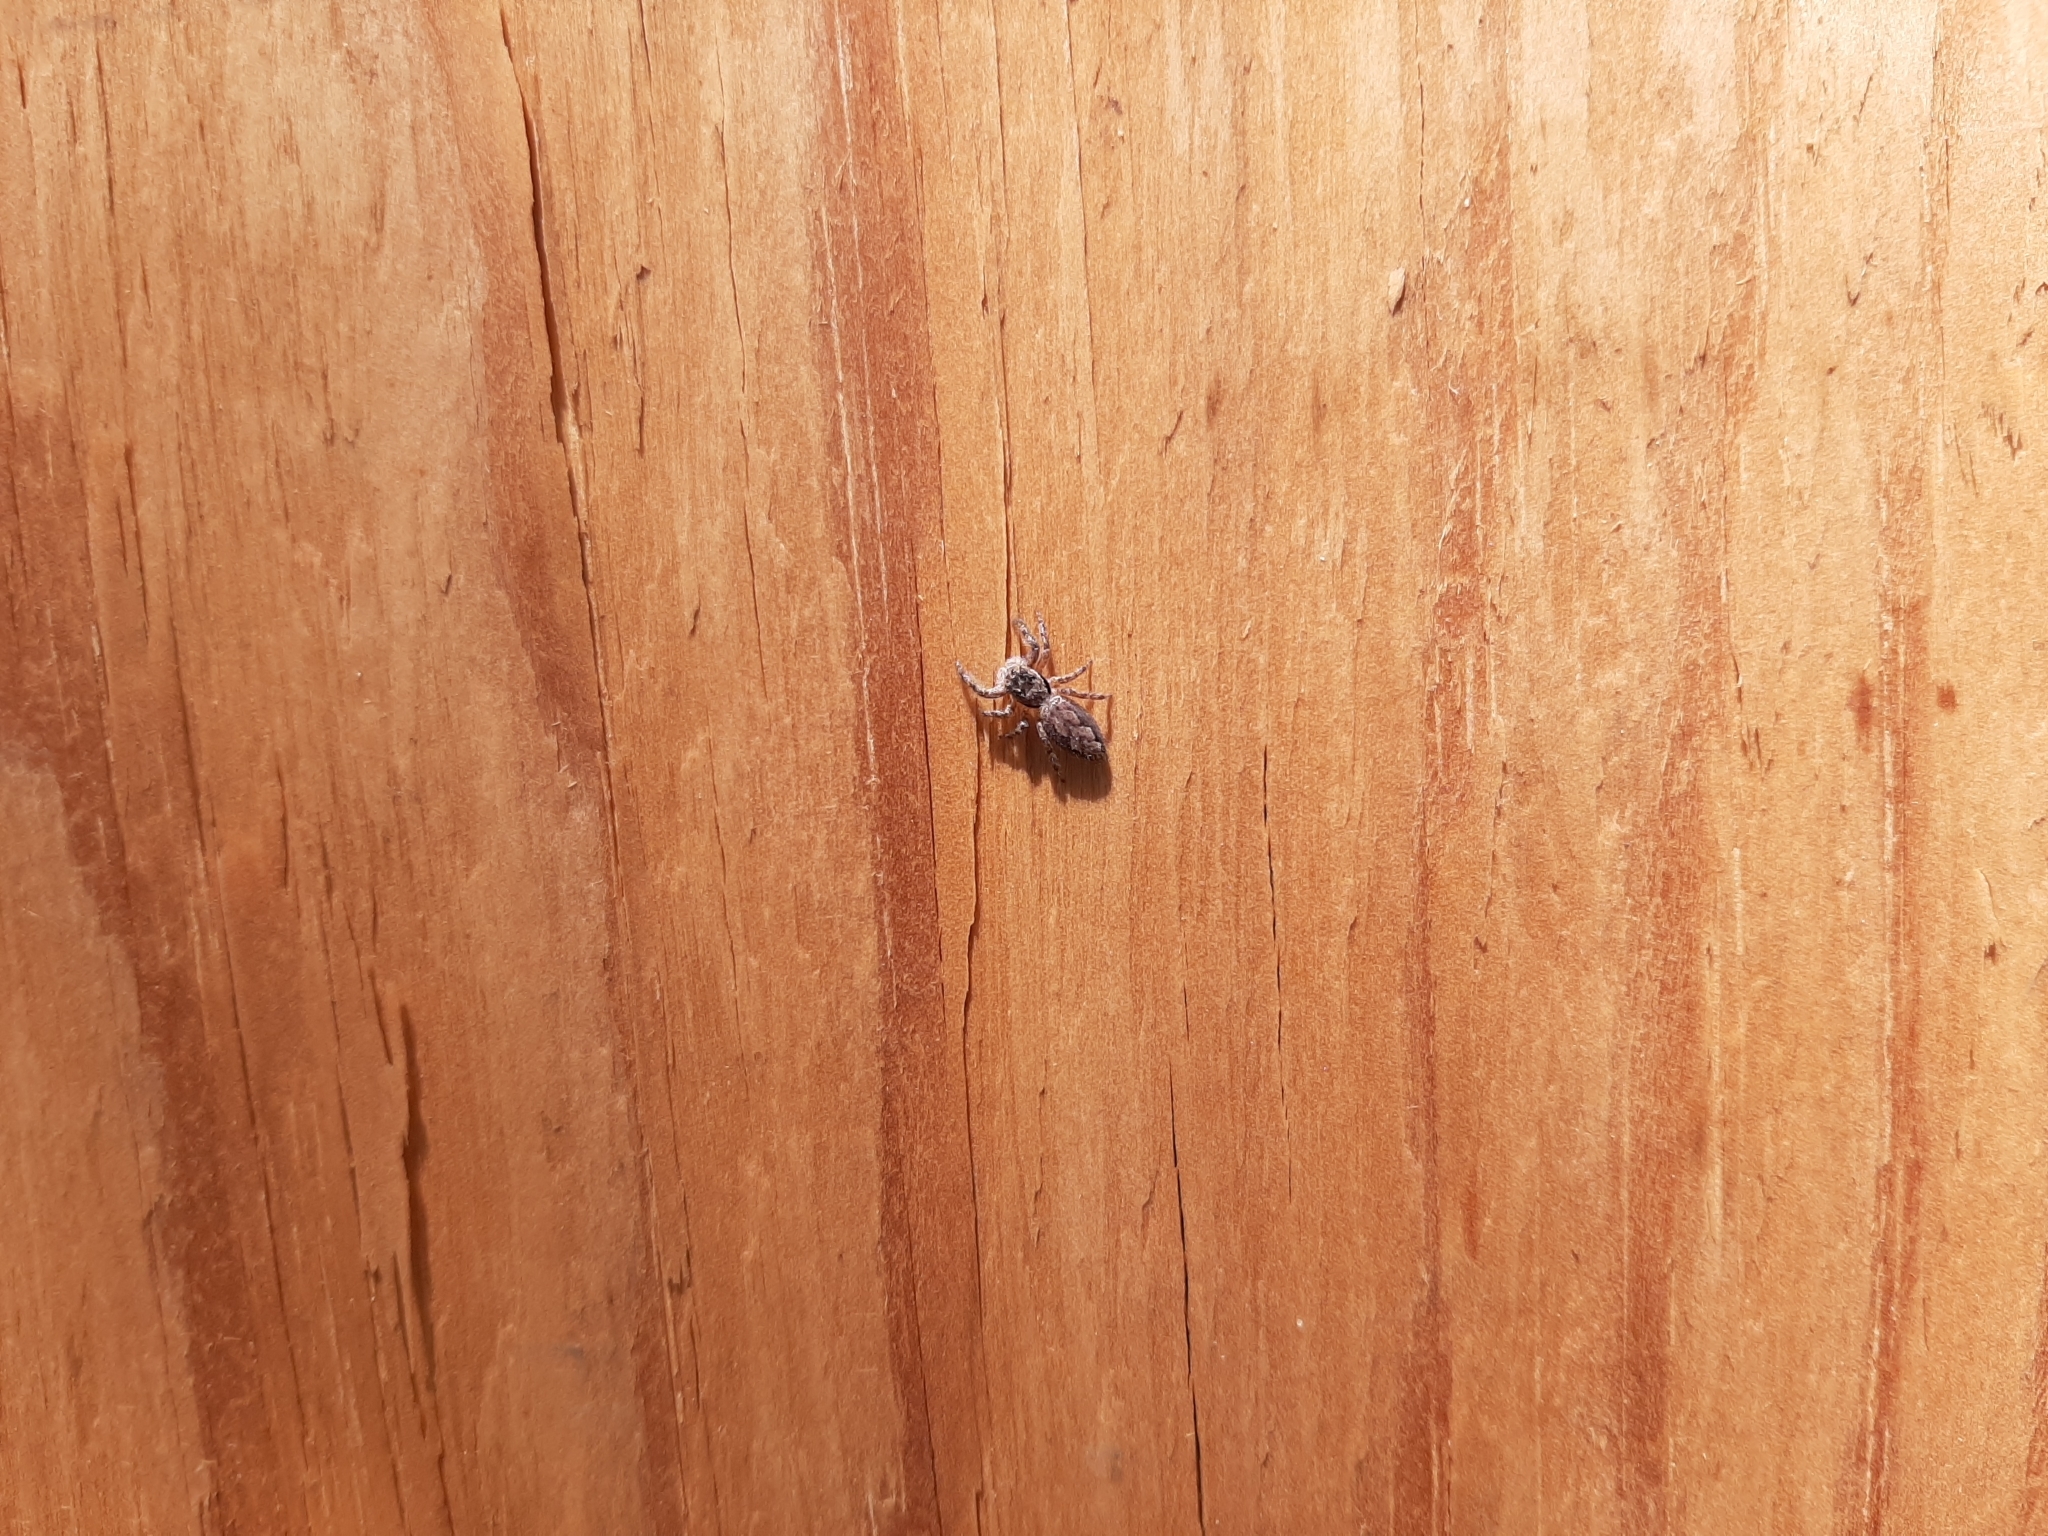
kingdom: Animalia
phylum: Arthropoda
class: Arachnida
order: Araneae
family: Salticidae
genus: Platycryptus
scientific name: Platycryptus undatus
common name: Tan jumping spider
